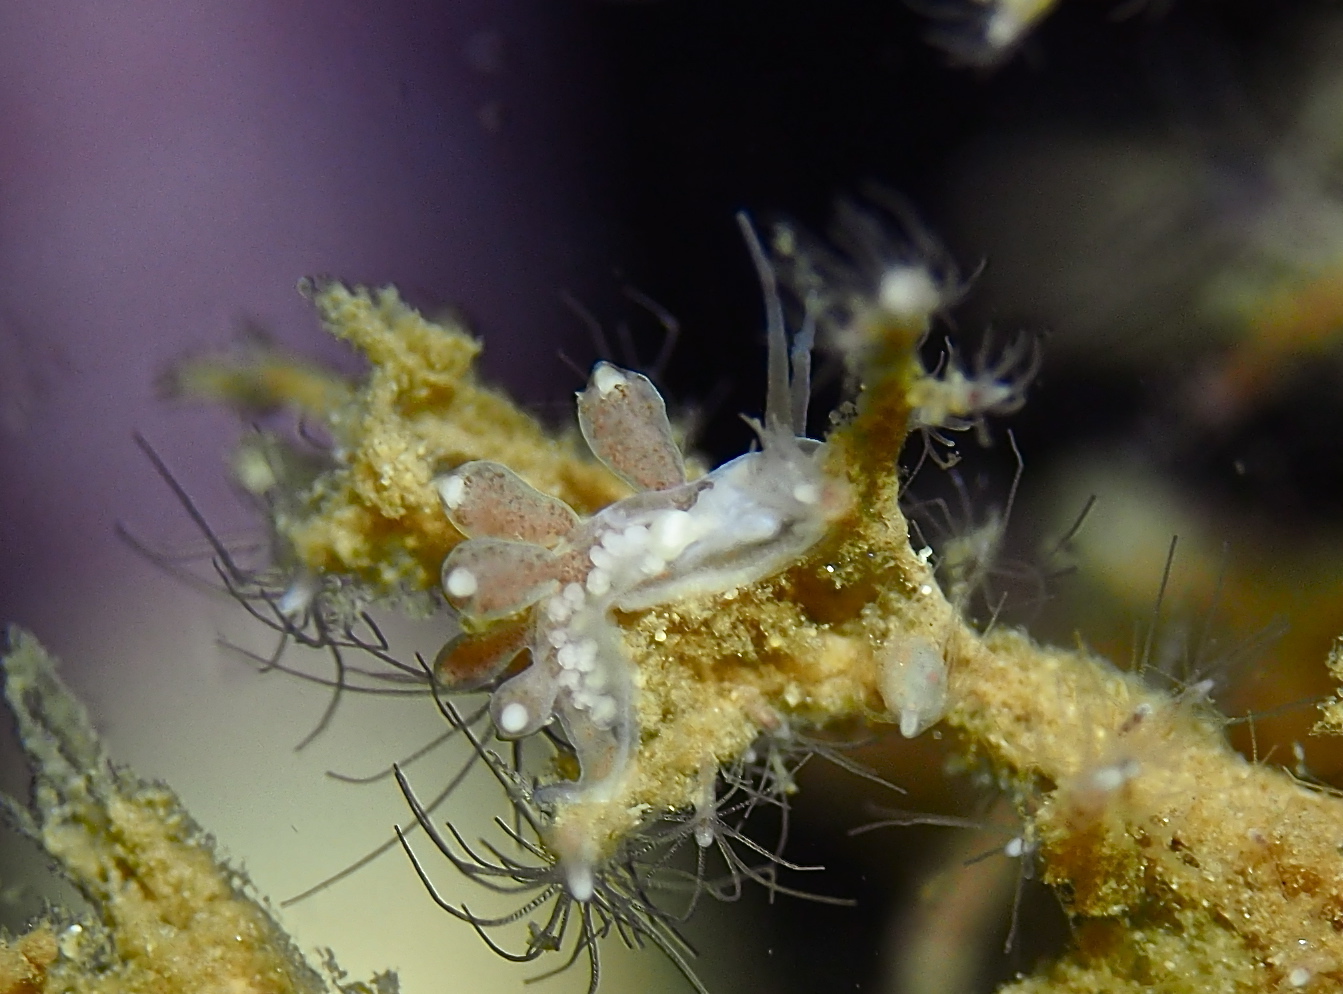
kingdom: Animalia
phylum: Mollusca
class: Gastropoda
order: Nudibranchia
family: Tergipedidae
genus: Tergipes
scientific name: Tergipes tergipes
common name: Johnston's balloon eolis
